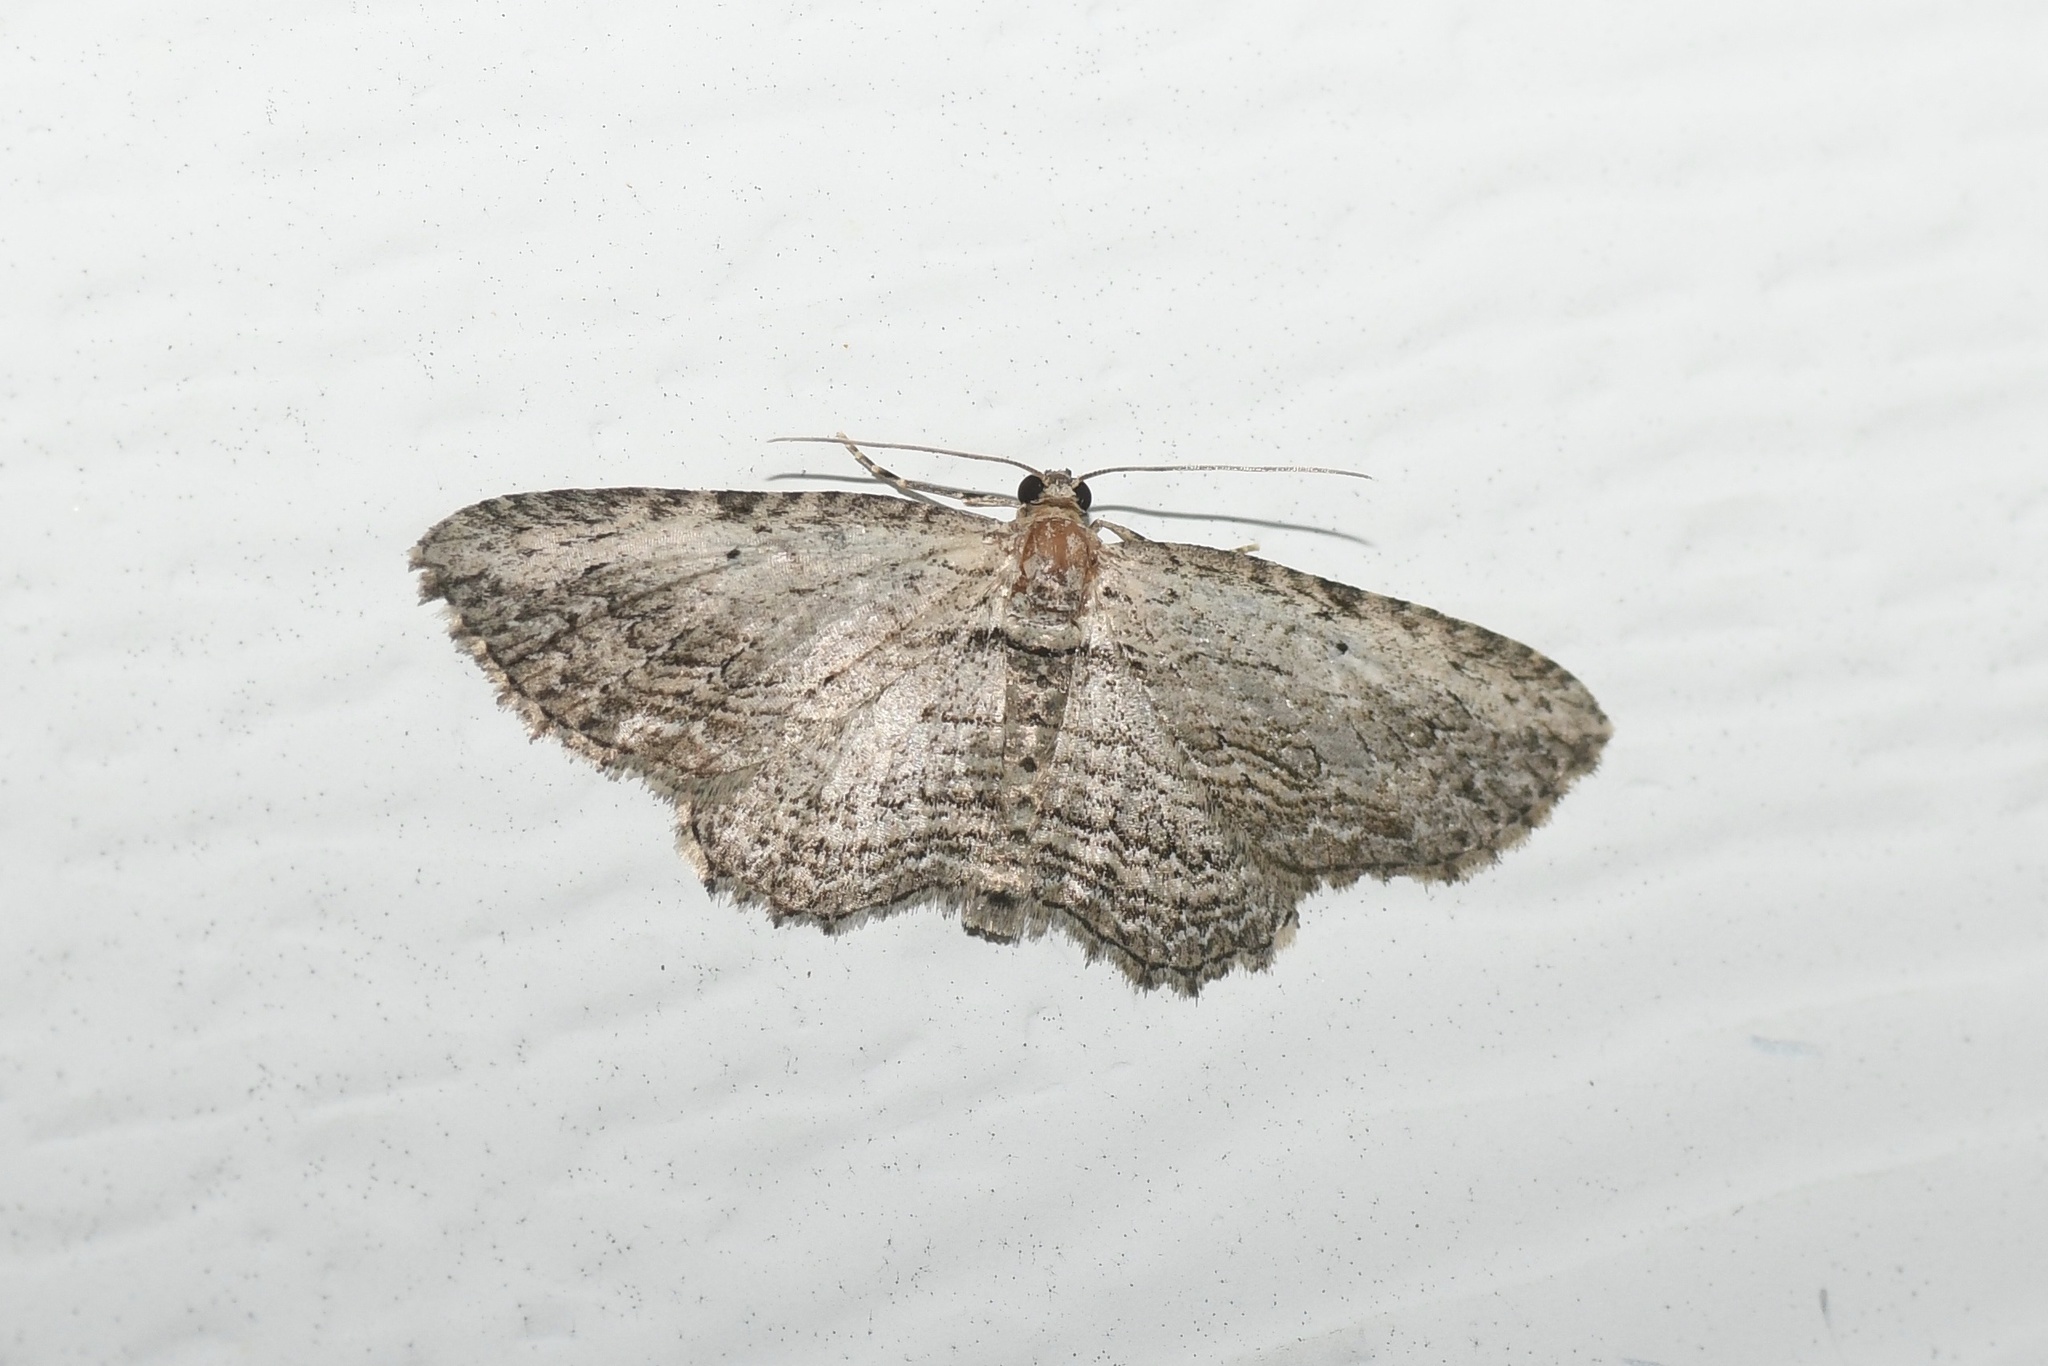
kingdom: Animalia
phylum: Arthropoda
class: Insecta
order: Lepidoptera
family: Geometridae
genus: Horisme
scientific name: Horisme intestinata
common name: Brown bark carpet
